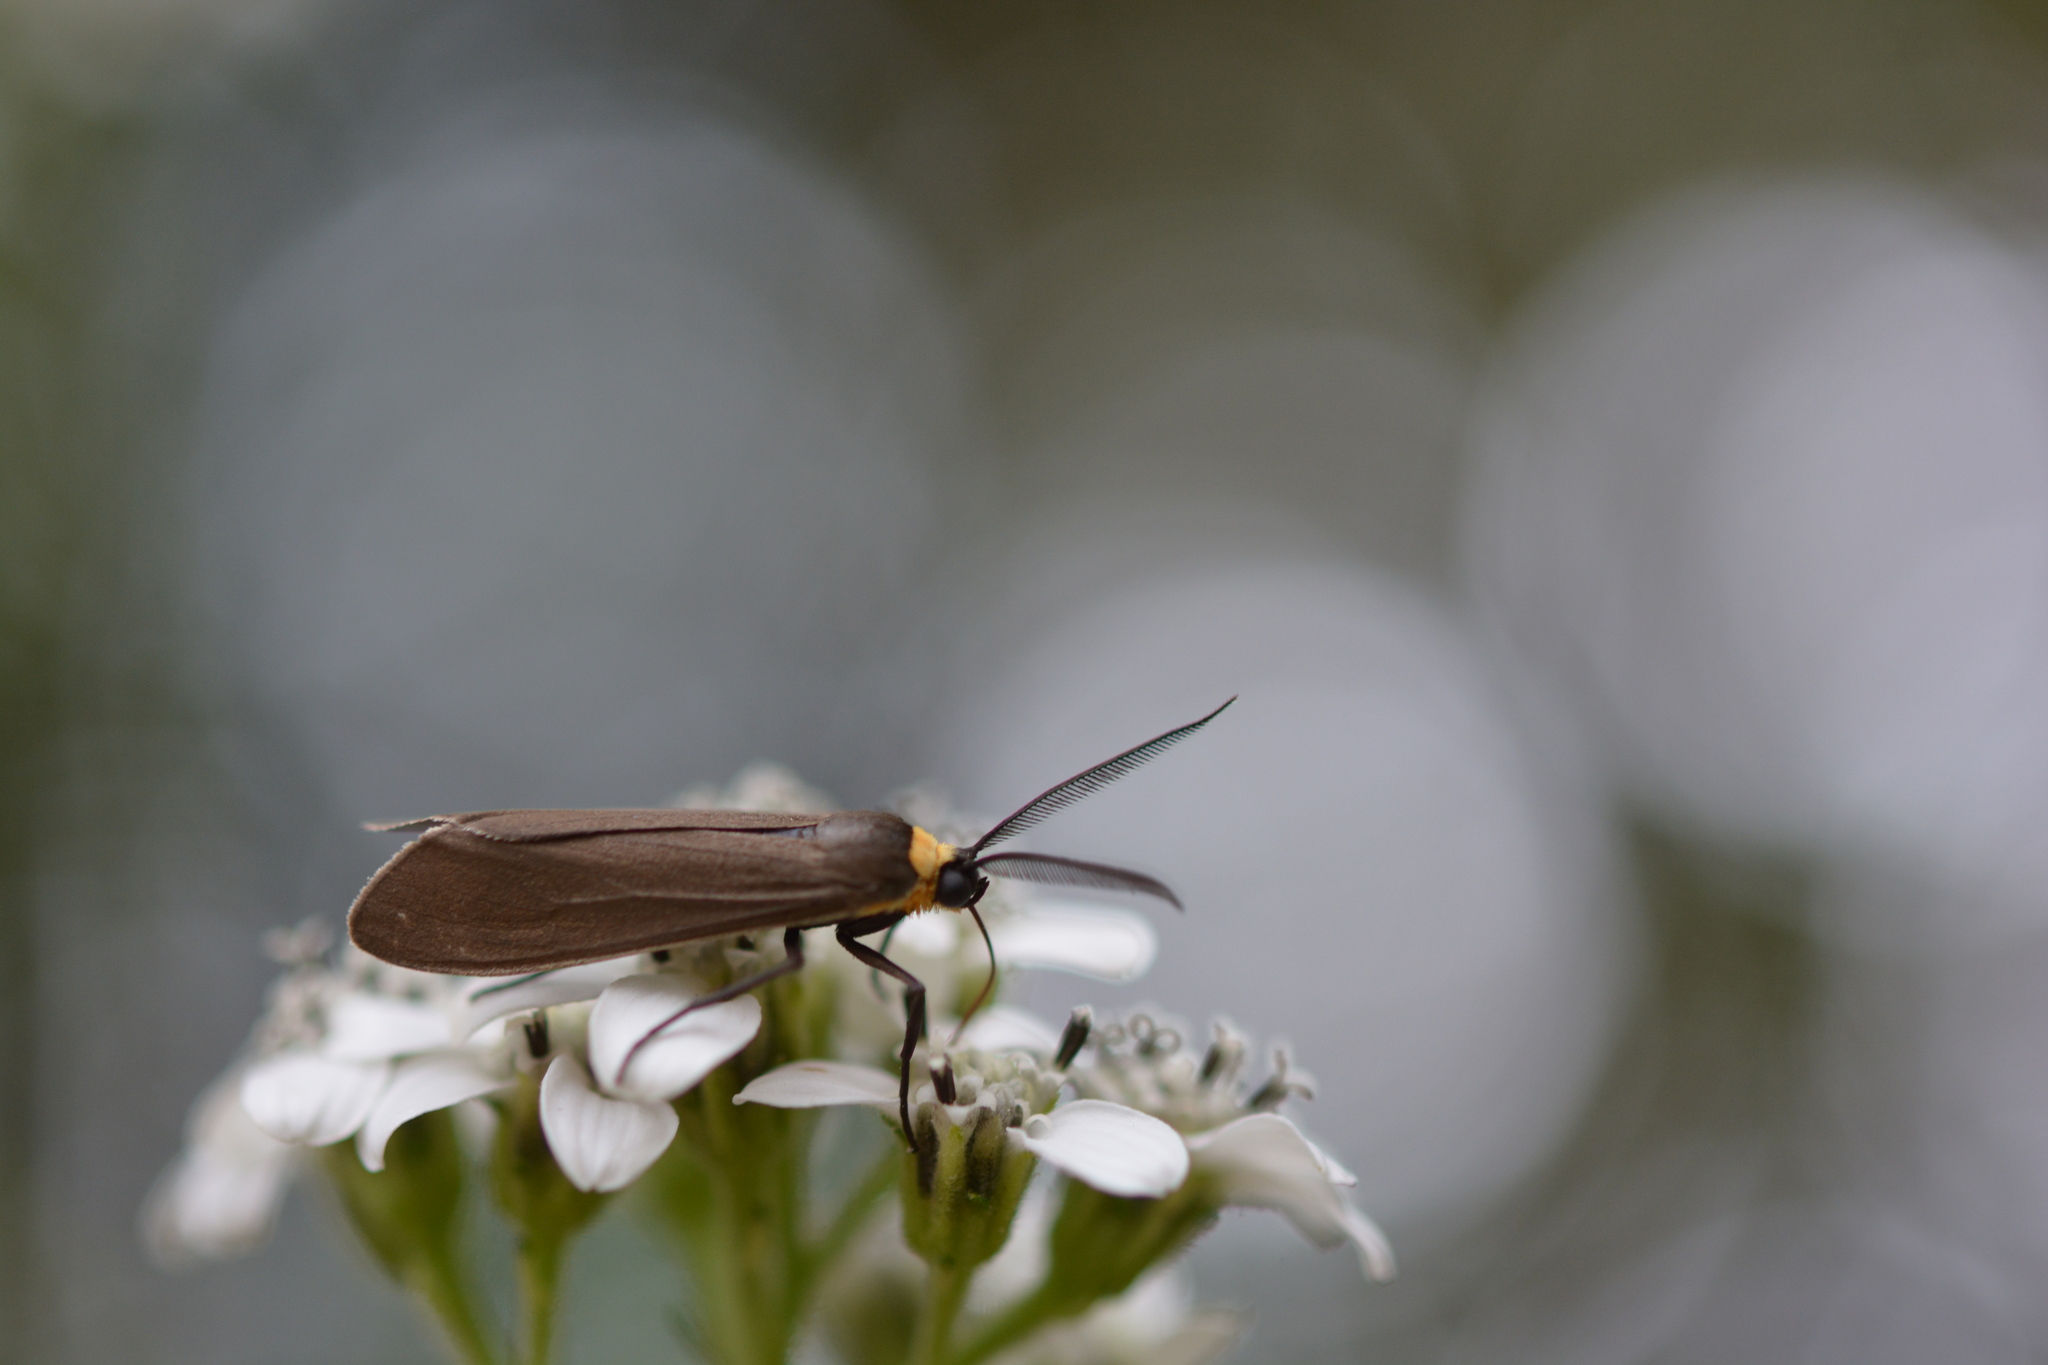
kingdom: Animalia
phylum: Arthropoda
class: Insecta
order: Lepidoptera
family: Erebidae
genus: Cisseps
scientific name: Cisseps fulvicollis
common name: Yellow-collared scape moth
